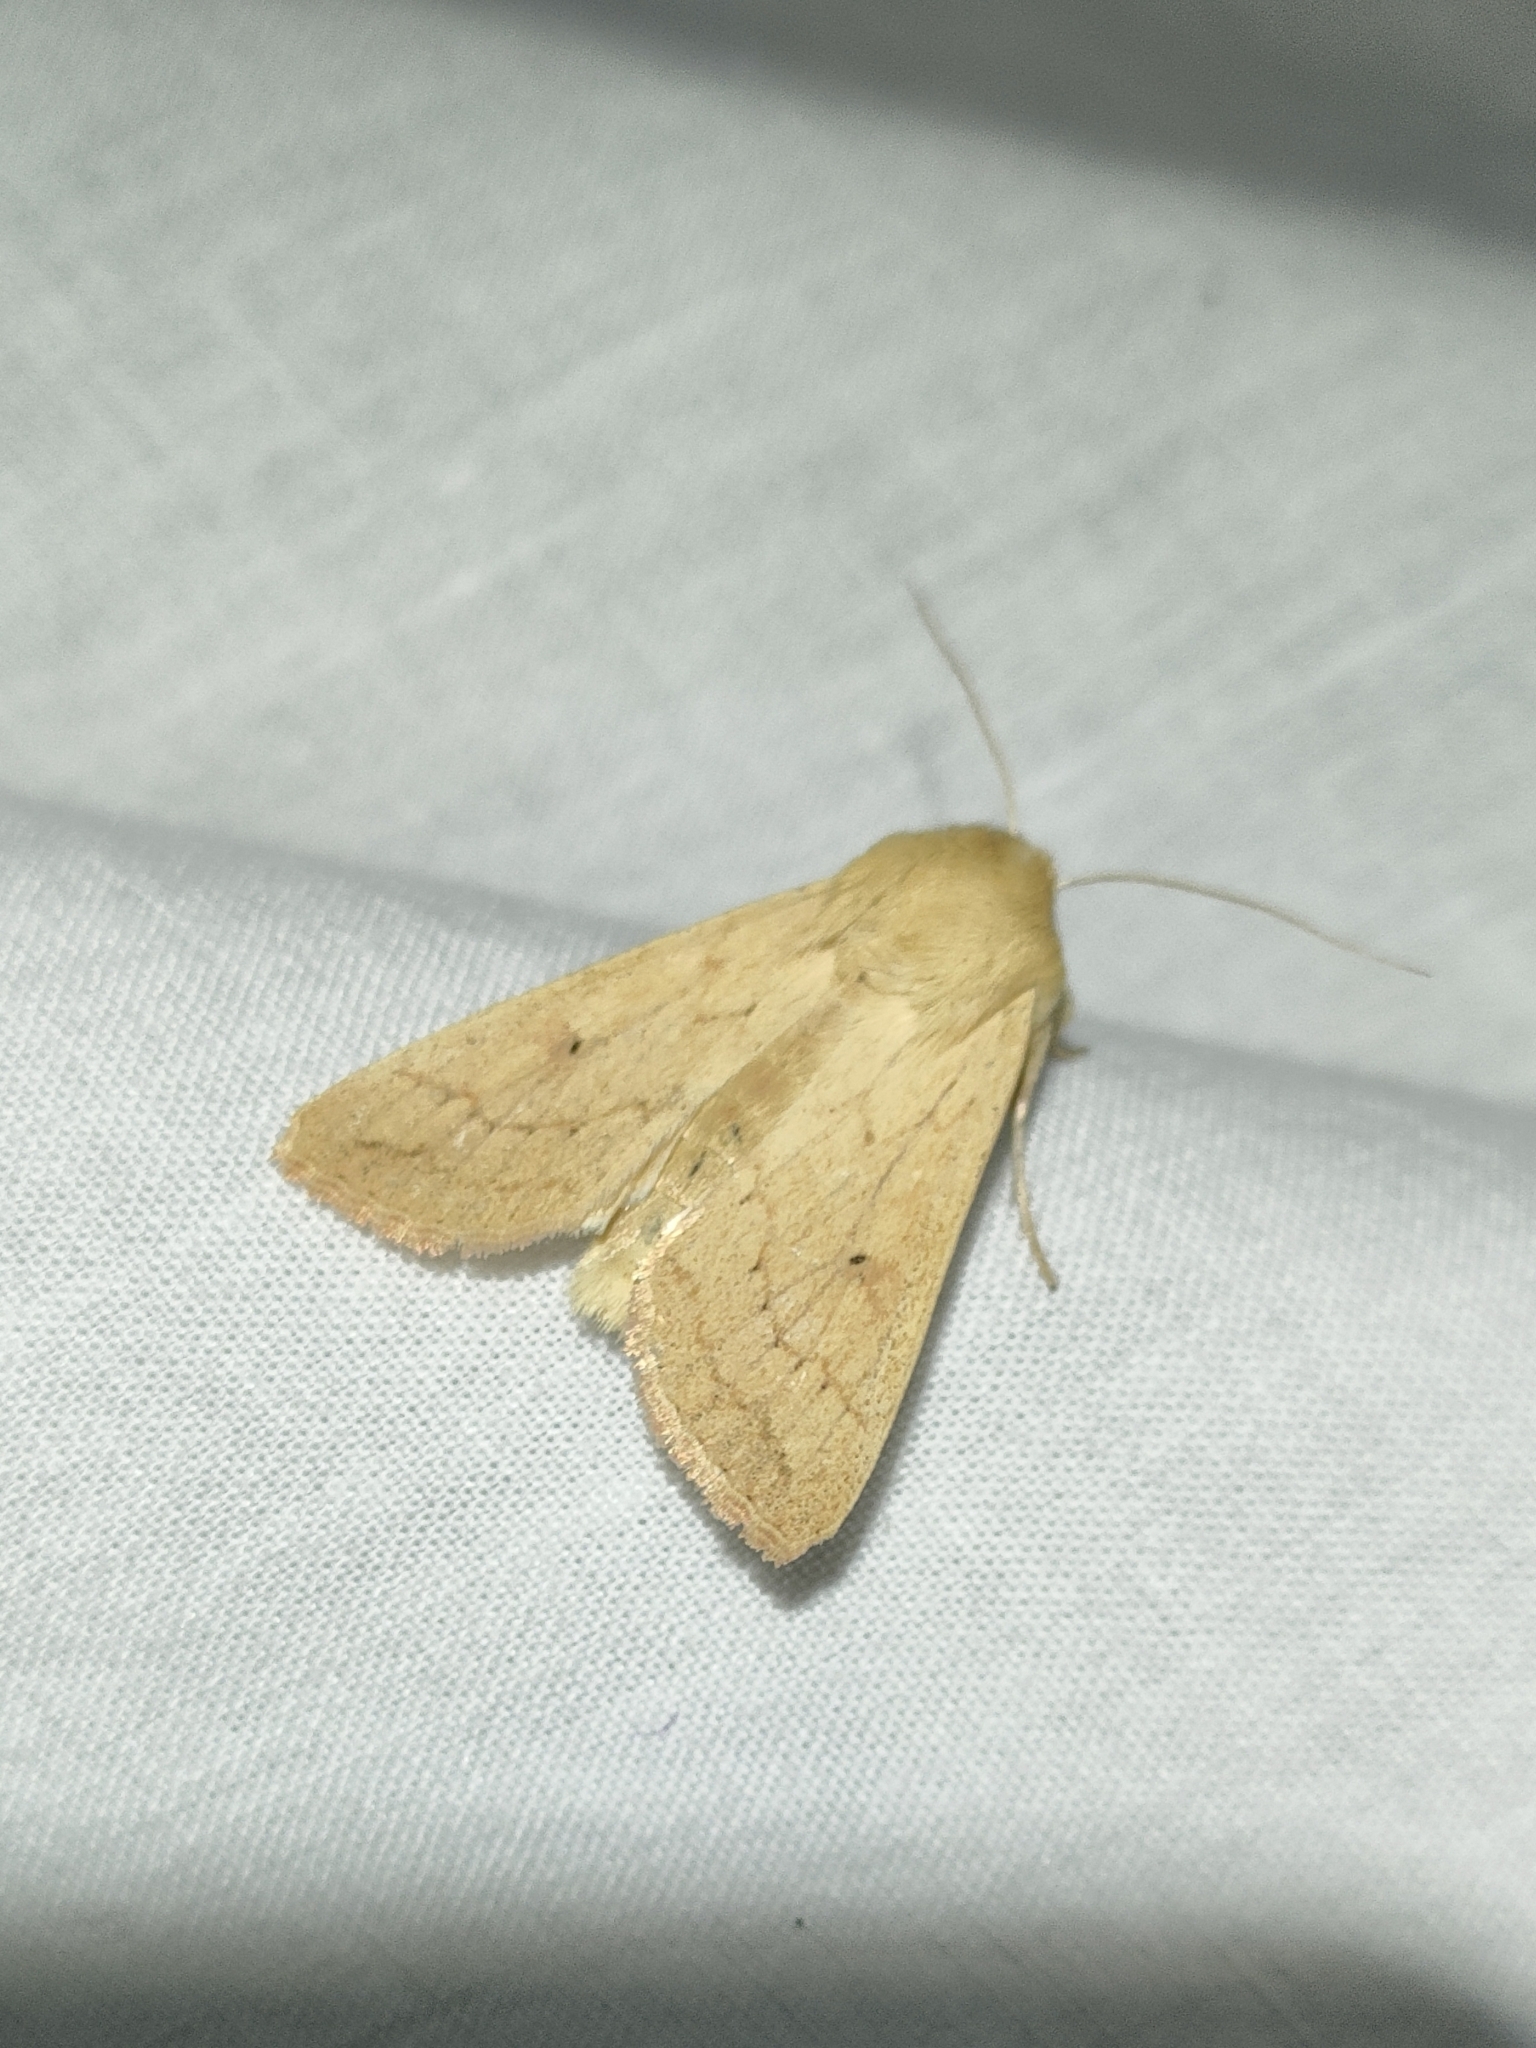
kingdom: Animalia
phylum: Arthropoda
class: Insecta
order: Lepidoptera
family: Noctuidae
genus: Mythimna
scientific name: Mythimna vitellina
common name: Delicate
